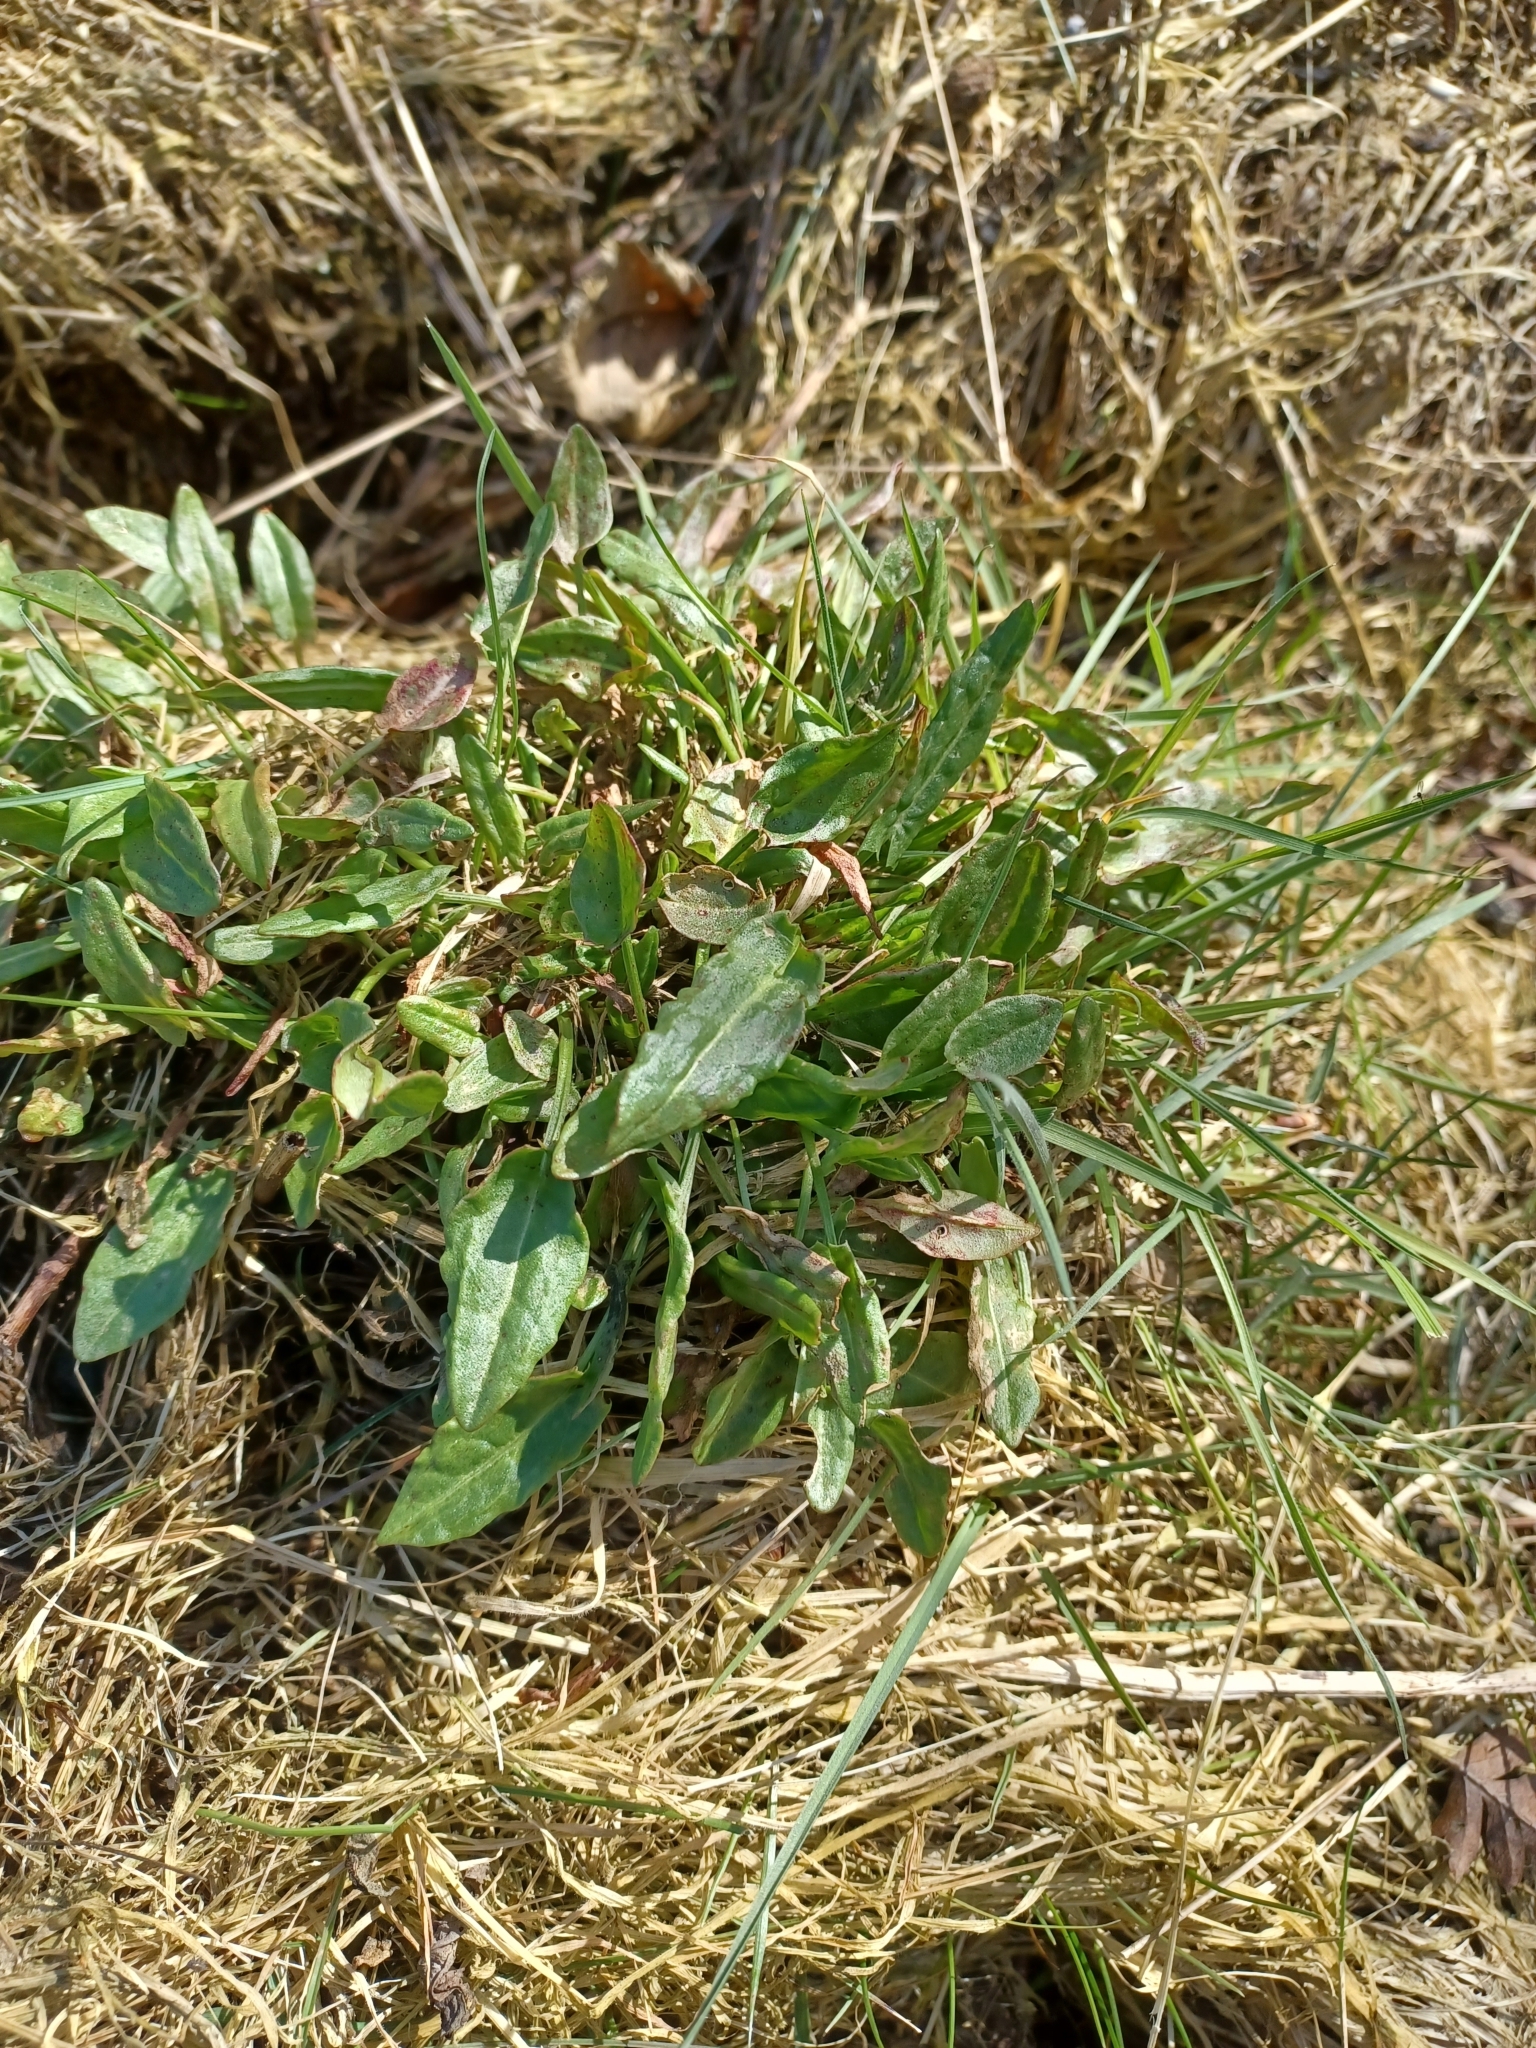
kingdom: Plantae
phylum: Tracheophyta
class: Magnoliopsida
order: Caryophyllales
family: Polygonaceae
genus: Rumex
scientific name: Rumex acetosa
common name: Garden sorrel
